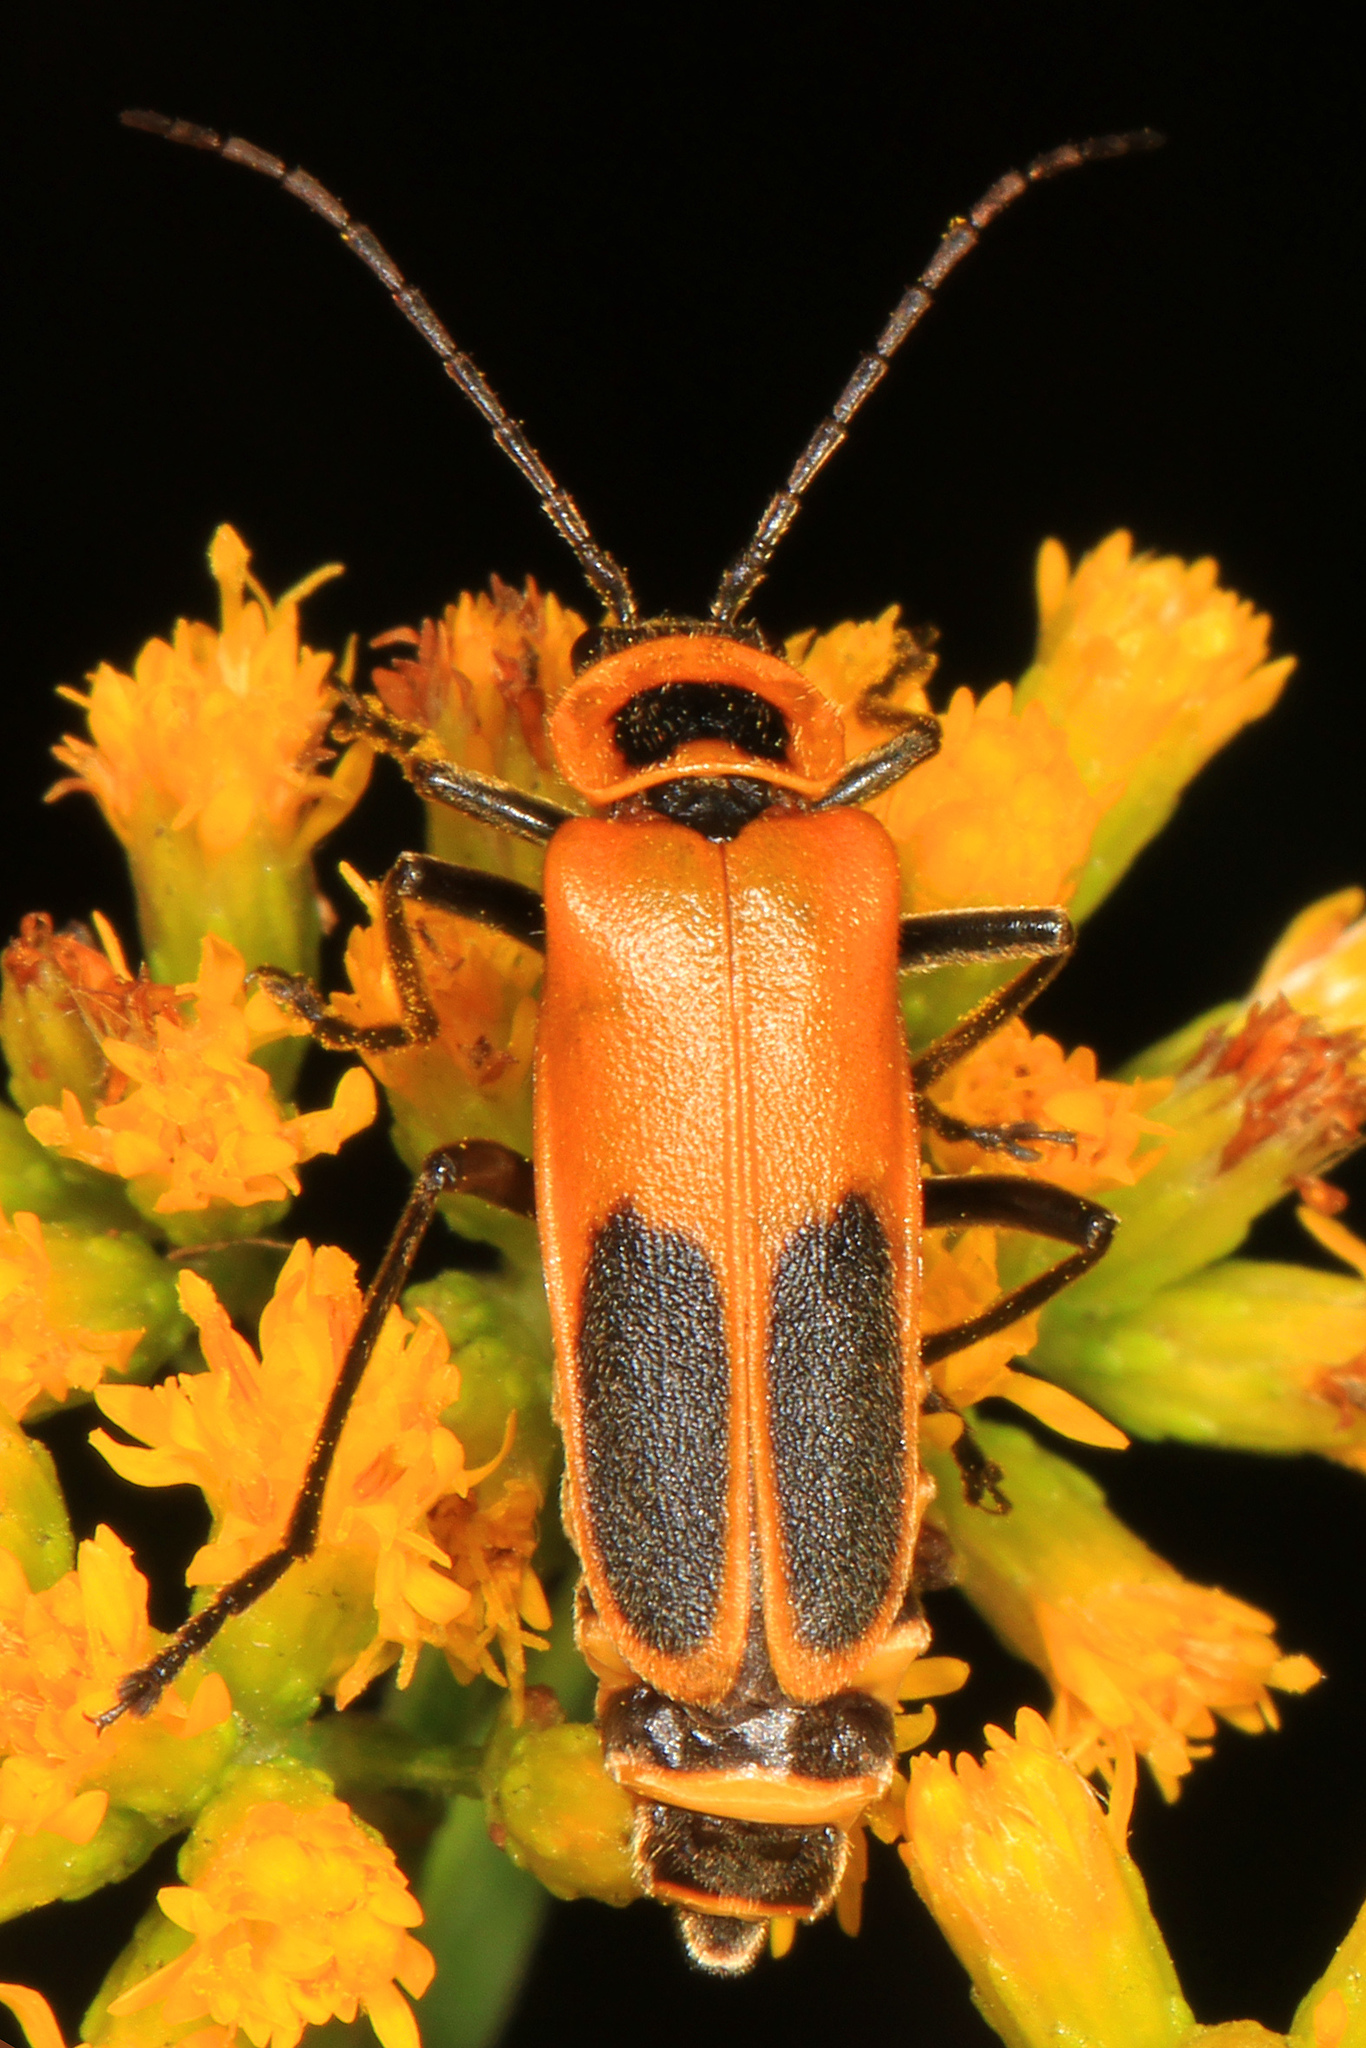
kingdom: Animalia
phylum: Arthropoda
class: Insecta
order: Coleoptera
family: Cantharidae
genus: Chauliognathus
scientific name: Chauliognathus pensylvanicus
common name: Goldenrod soldier beetle
